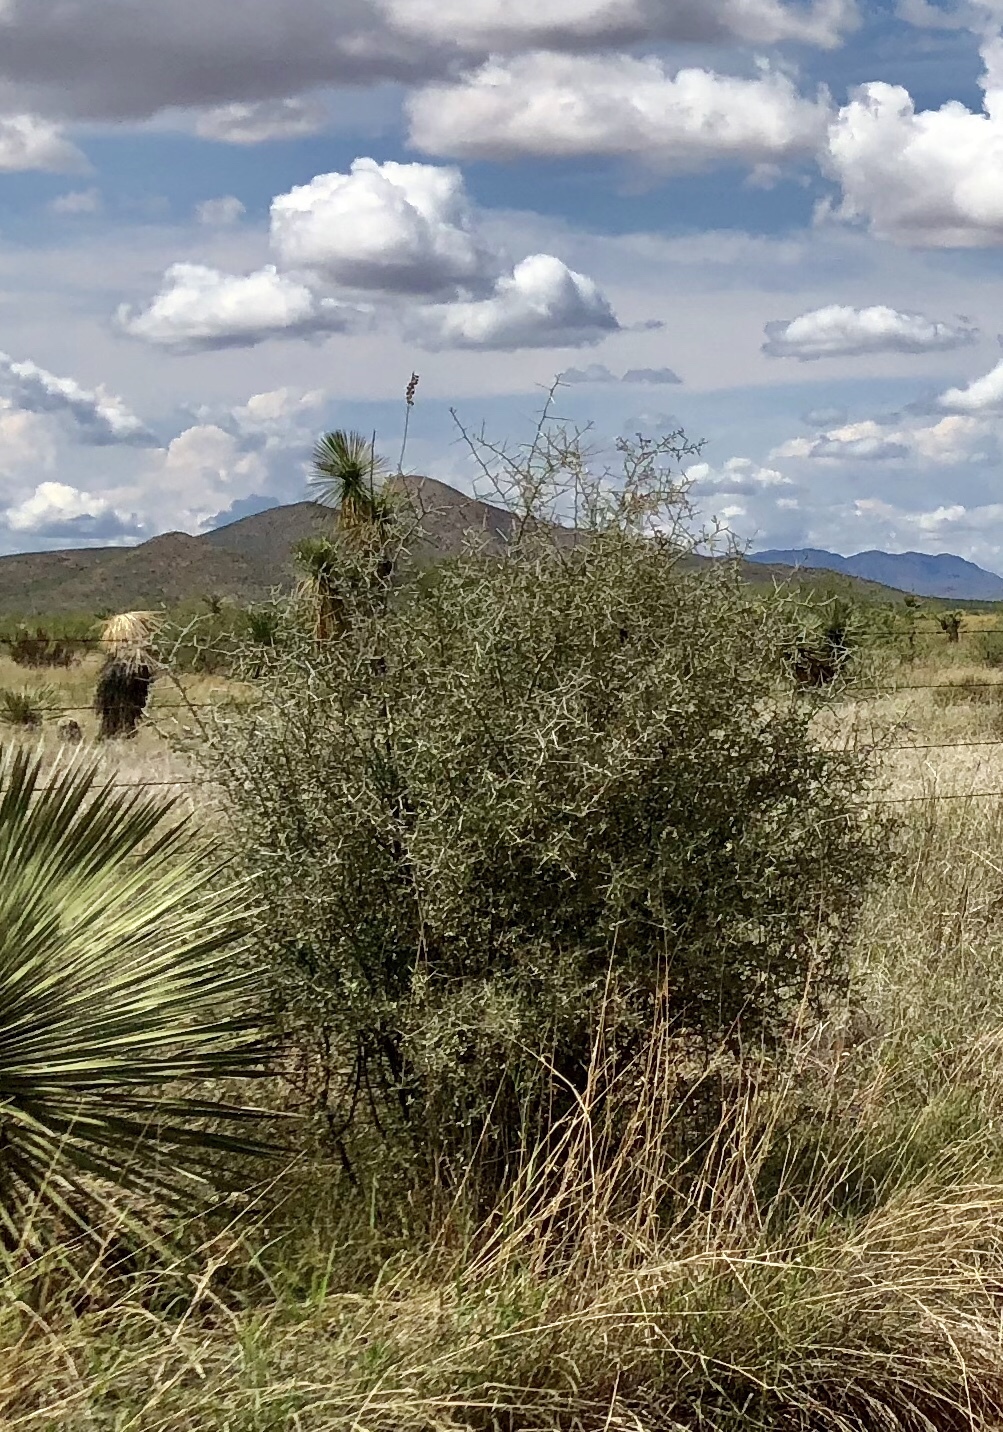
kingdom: Plantae
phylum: Tracheophyta
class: Magnoliopsida
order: Brassicales
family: Koeberliniaceae
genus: Koeberlinia
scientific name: Koeberlinia spinosa
